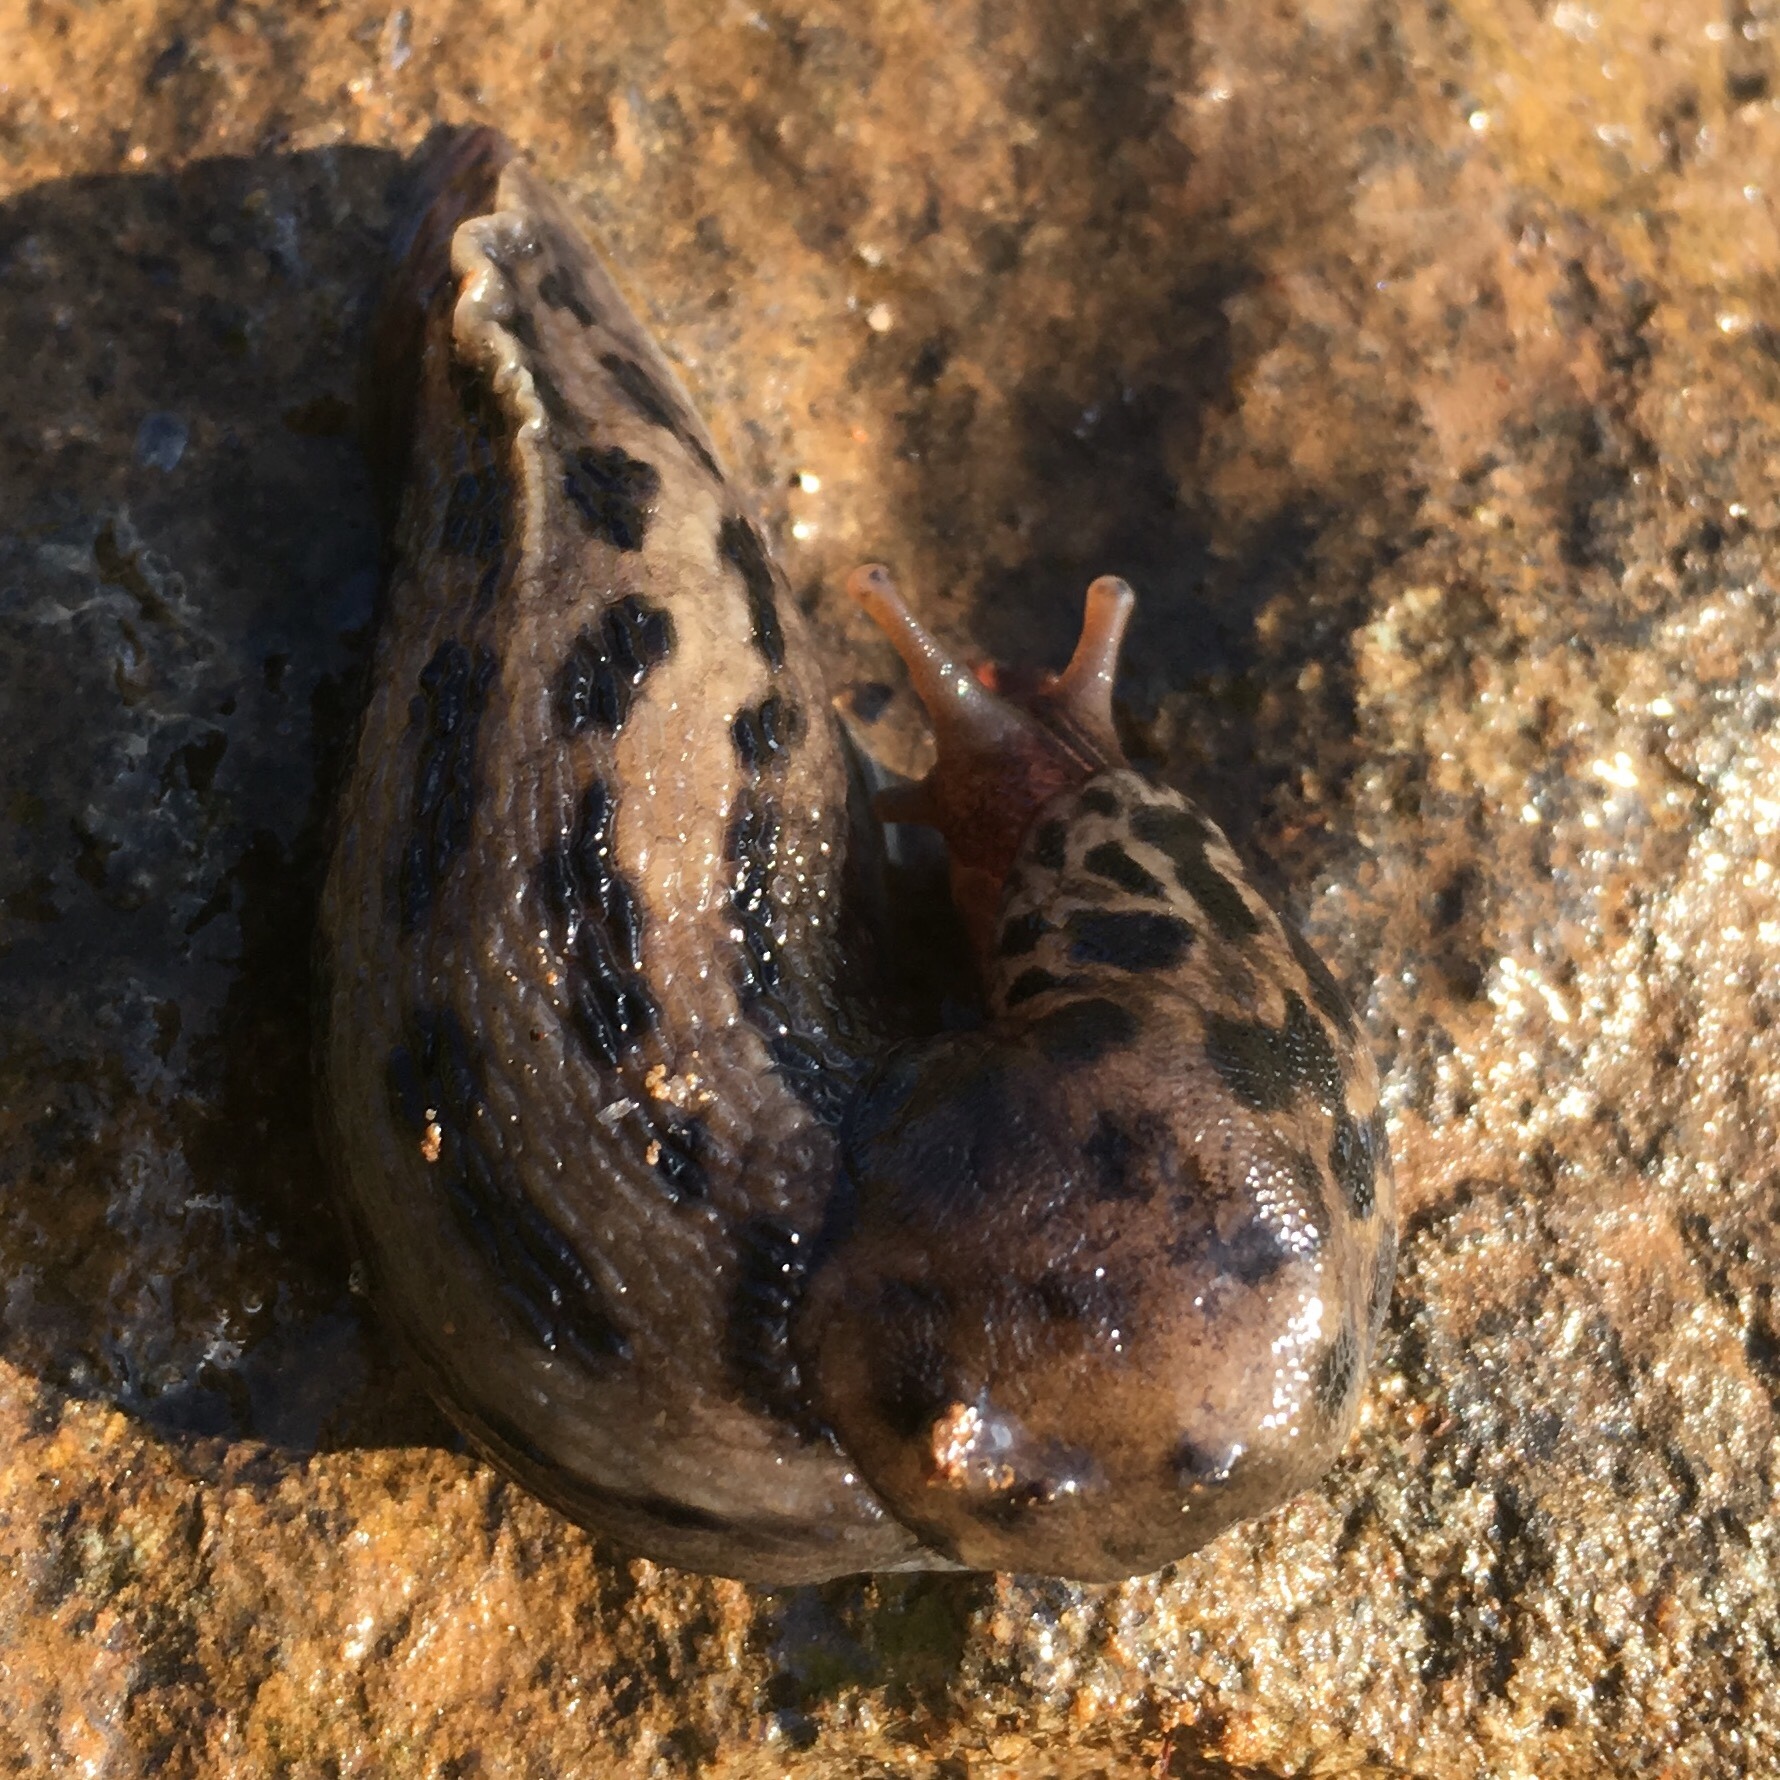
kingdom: Animalia
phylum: Mollusca
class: Gastropoda
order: Stylommatophora
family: Limacidae
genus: Limax
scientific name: Limax maximus
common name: Great grey slug
